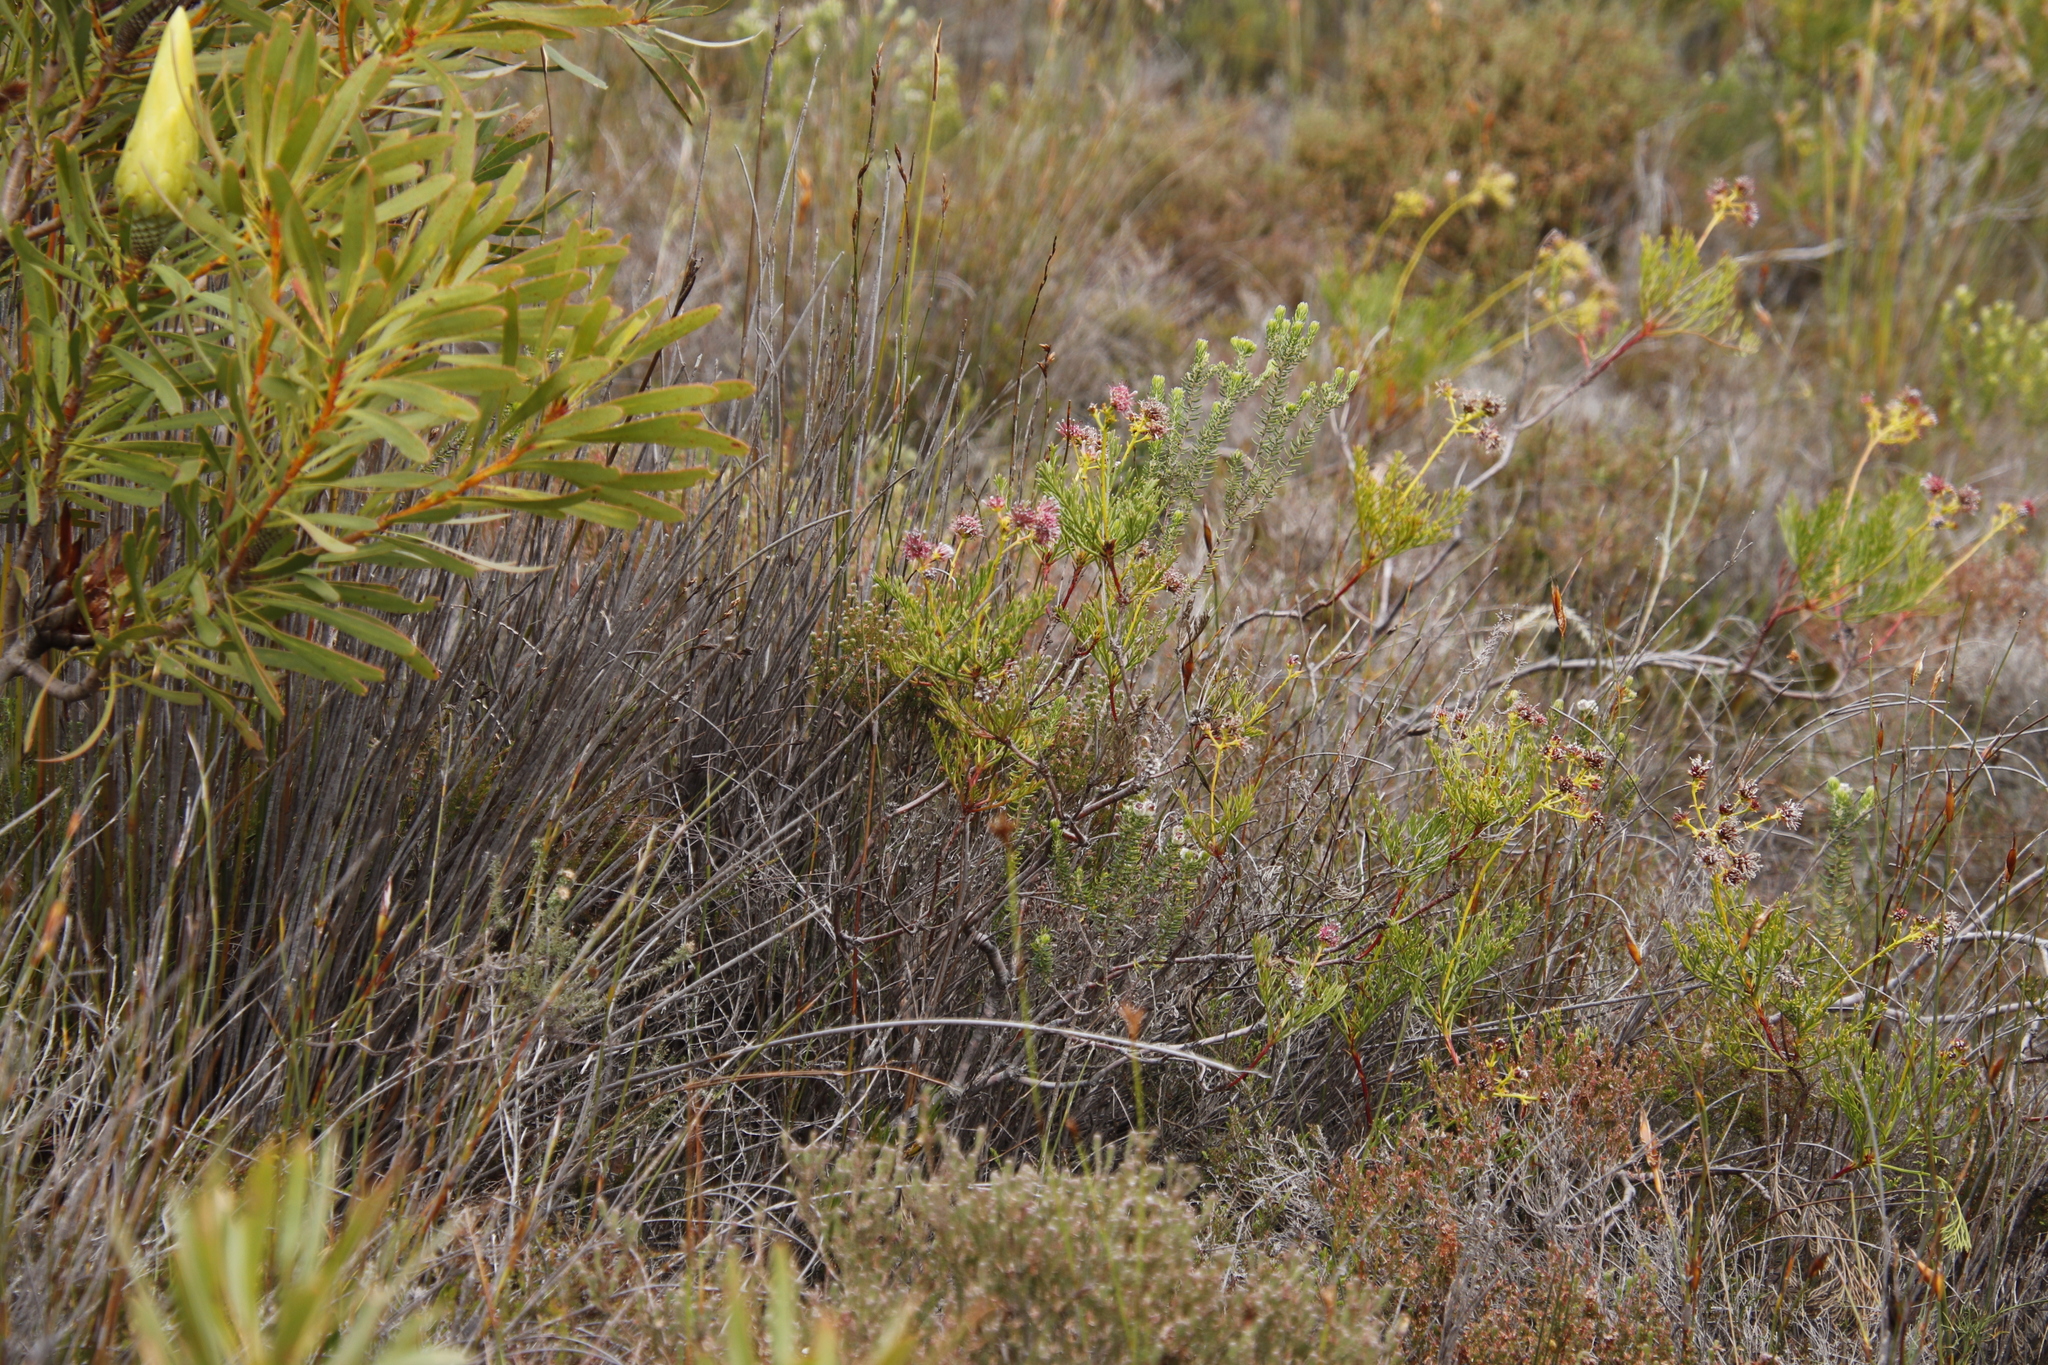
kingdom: Plantae
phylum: Tracheophyta
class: Magnoliopsida
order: Proteales
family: Proteaceae
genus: Serruria
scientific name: Serruria elongata
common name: Long-stalk spiderhead
